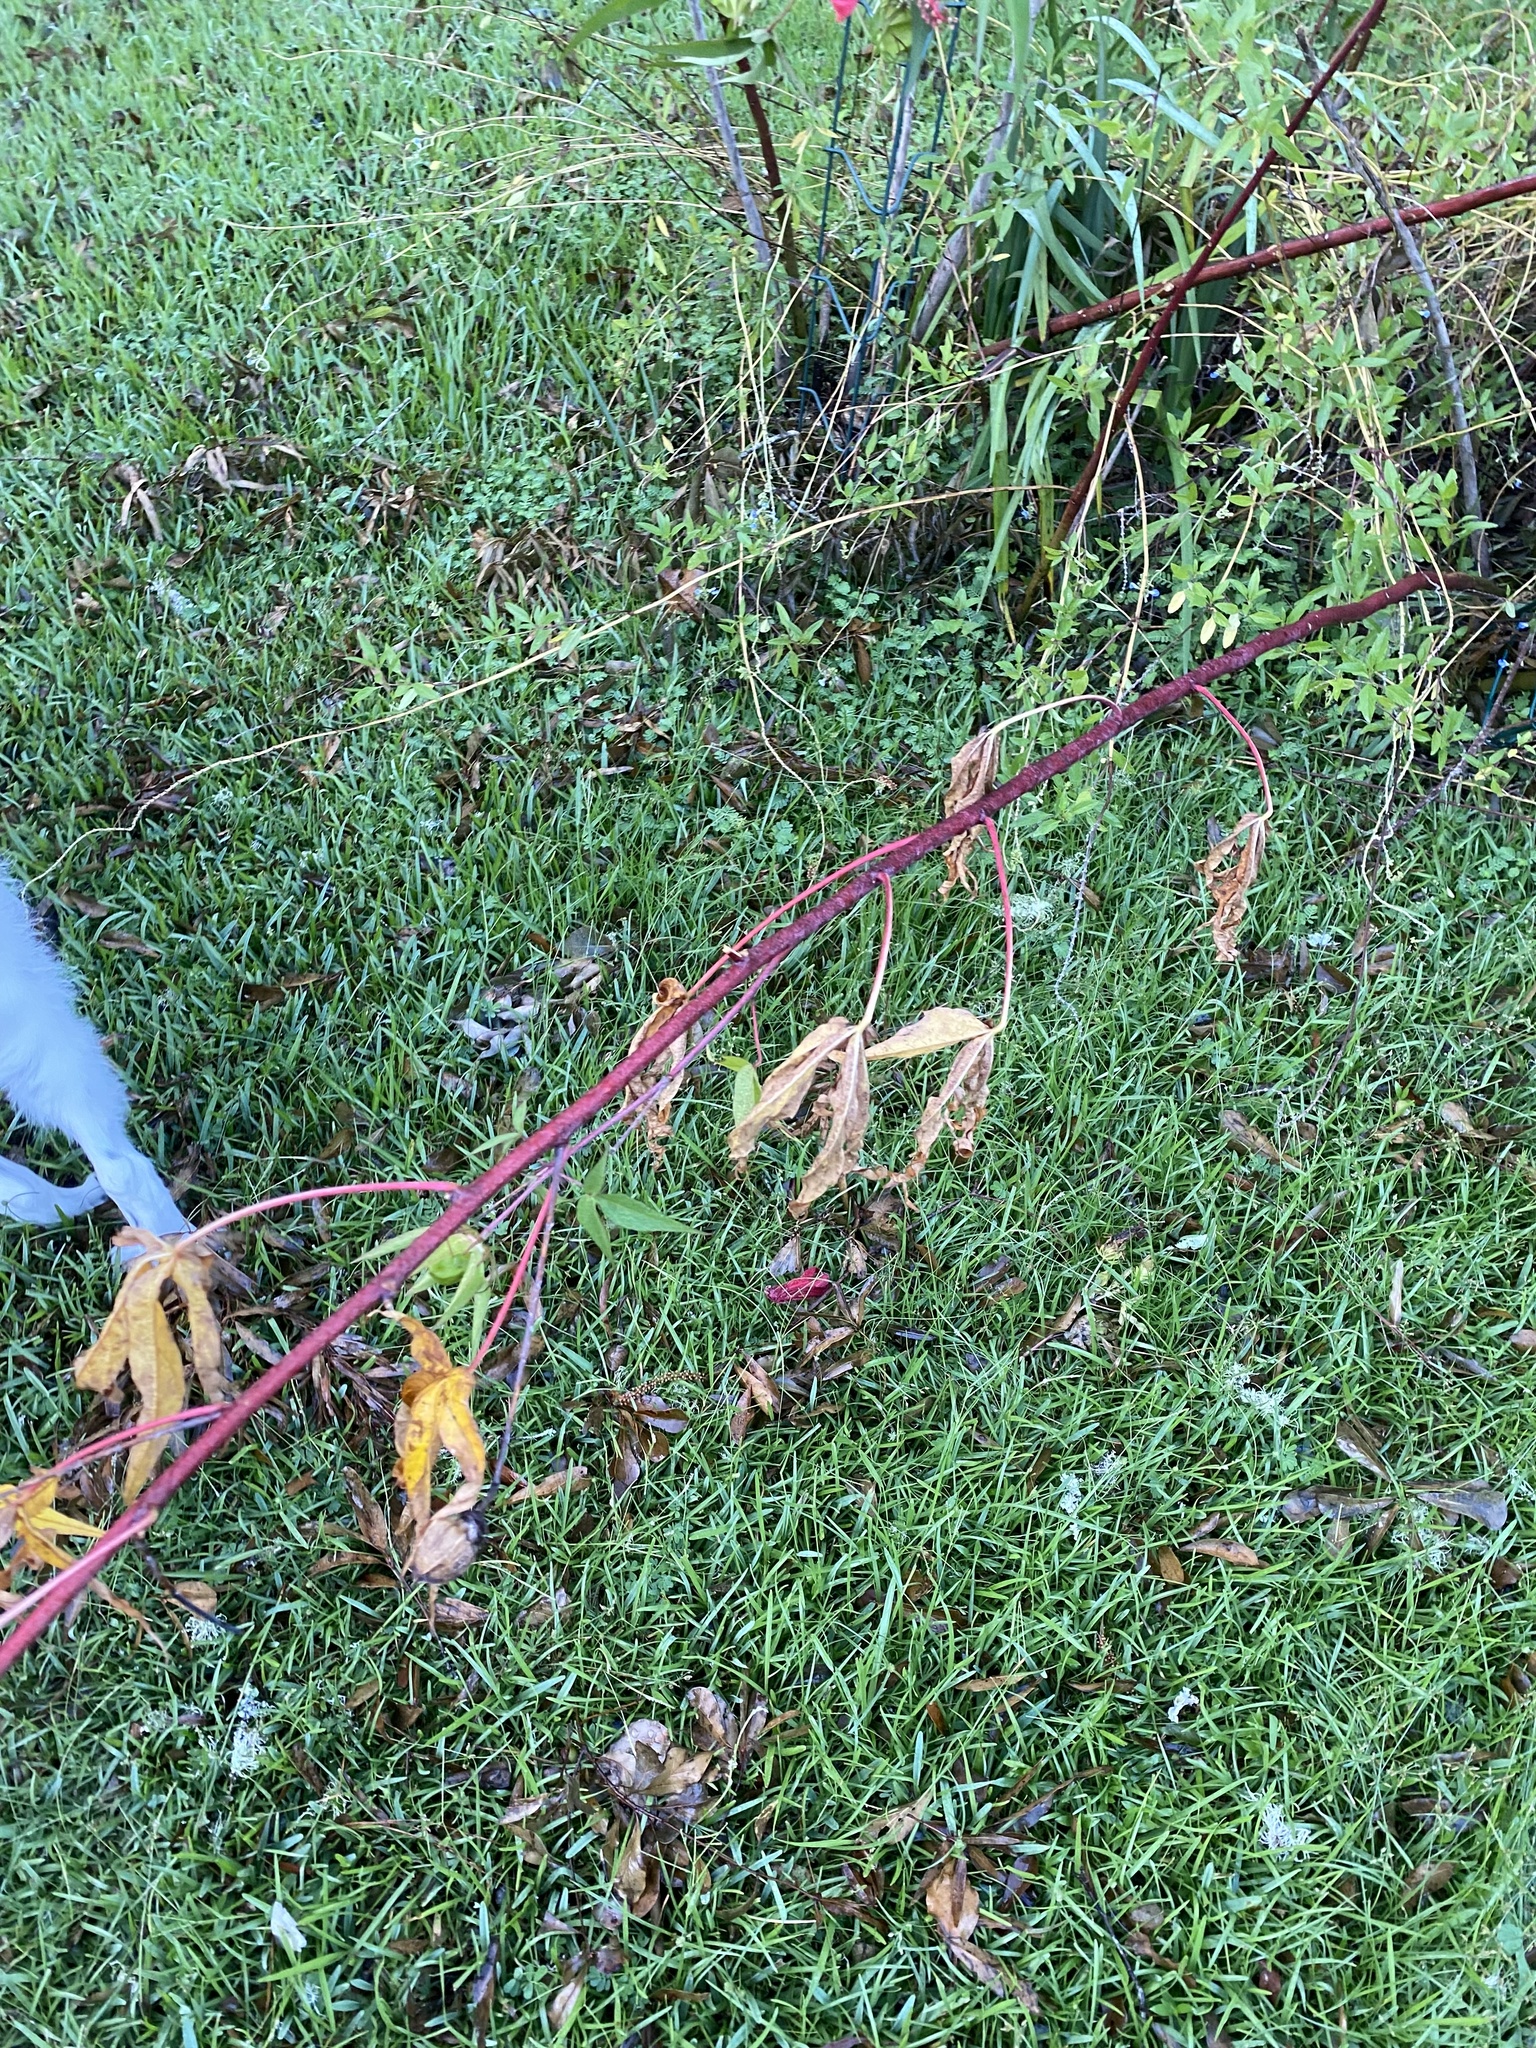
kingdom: Plantae
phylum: Tracheophyta
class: Magnoliopsida
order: Malvales
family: Malvaceae
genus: Hibiscus
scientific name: Hibiscus coccineus
